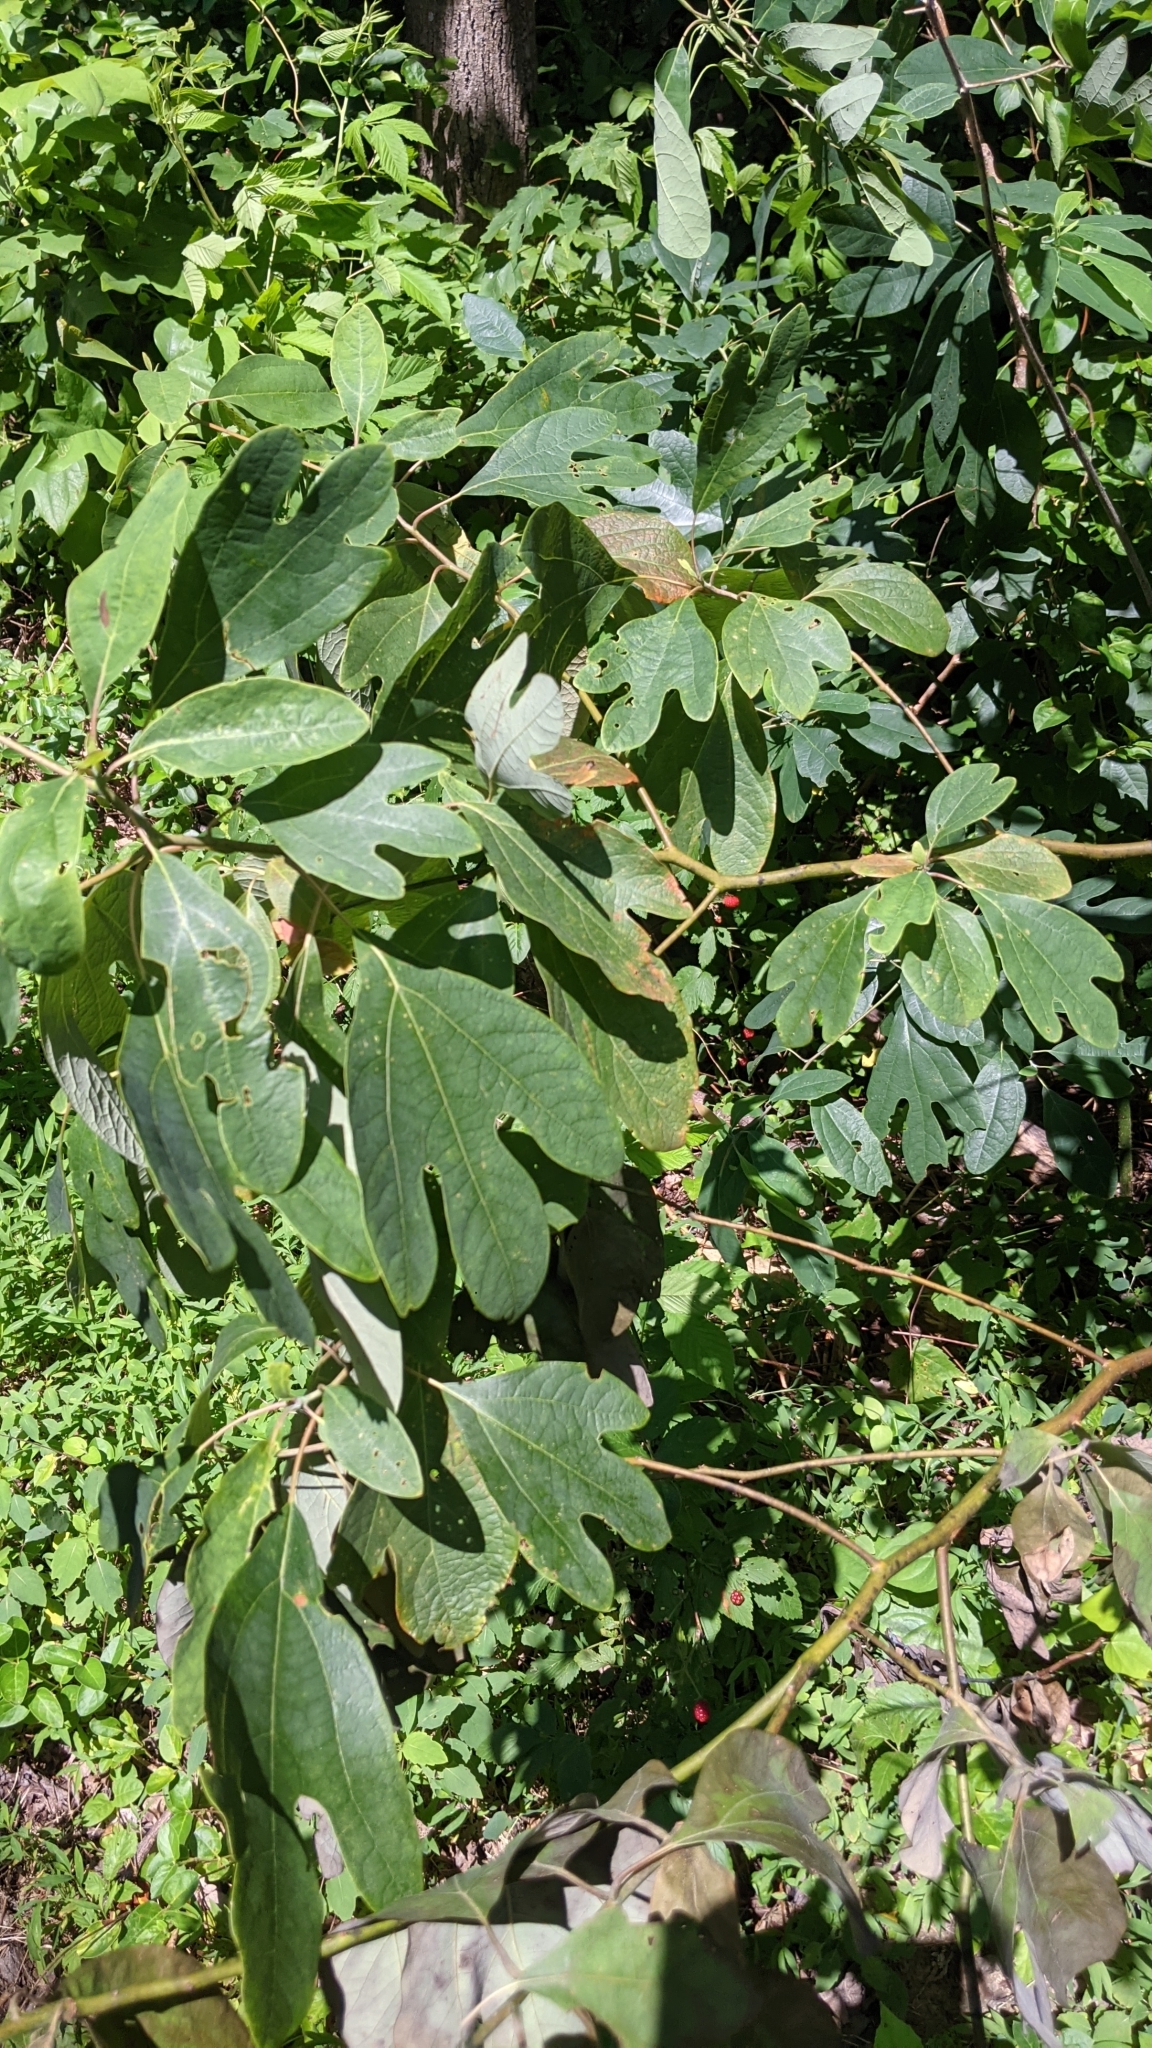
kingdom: Plantae
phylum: Tracheophyta
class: Magnoliopsida
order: Laurales
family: Lauraceae
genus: Sassafras
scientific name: Sassafras albidum
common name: Sassafras
